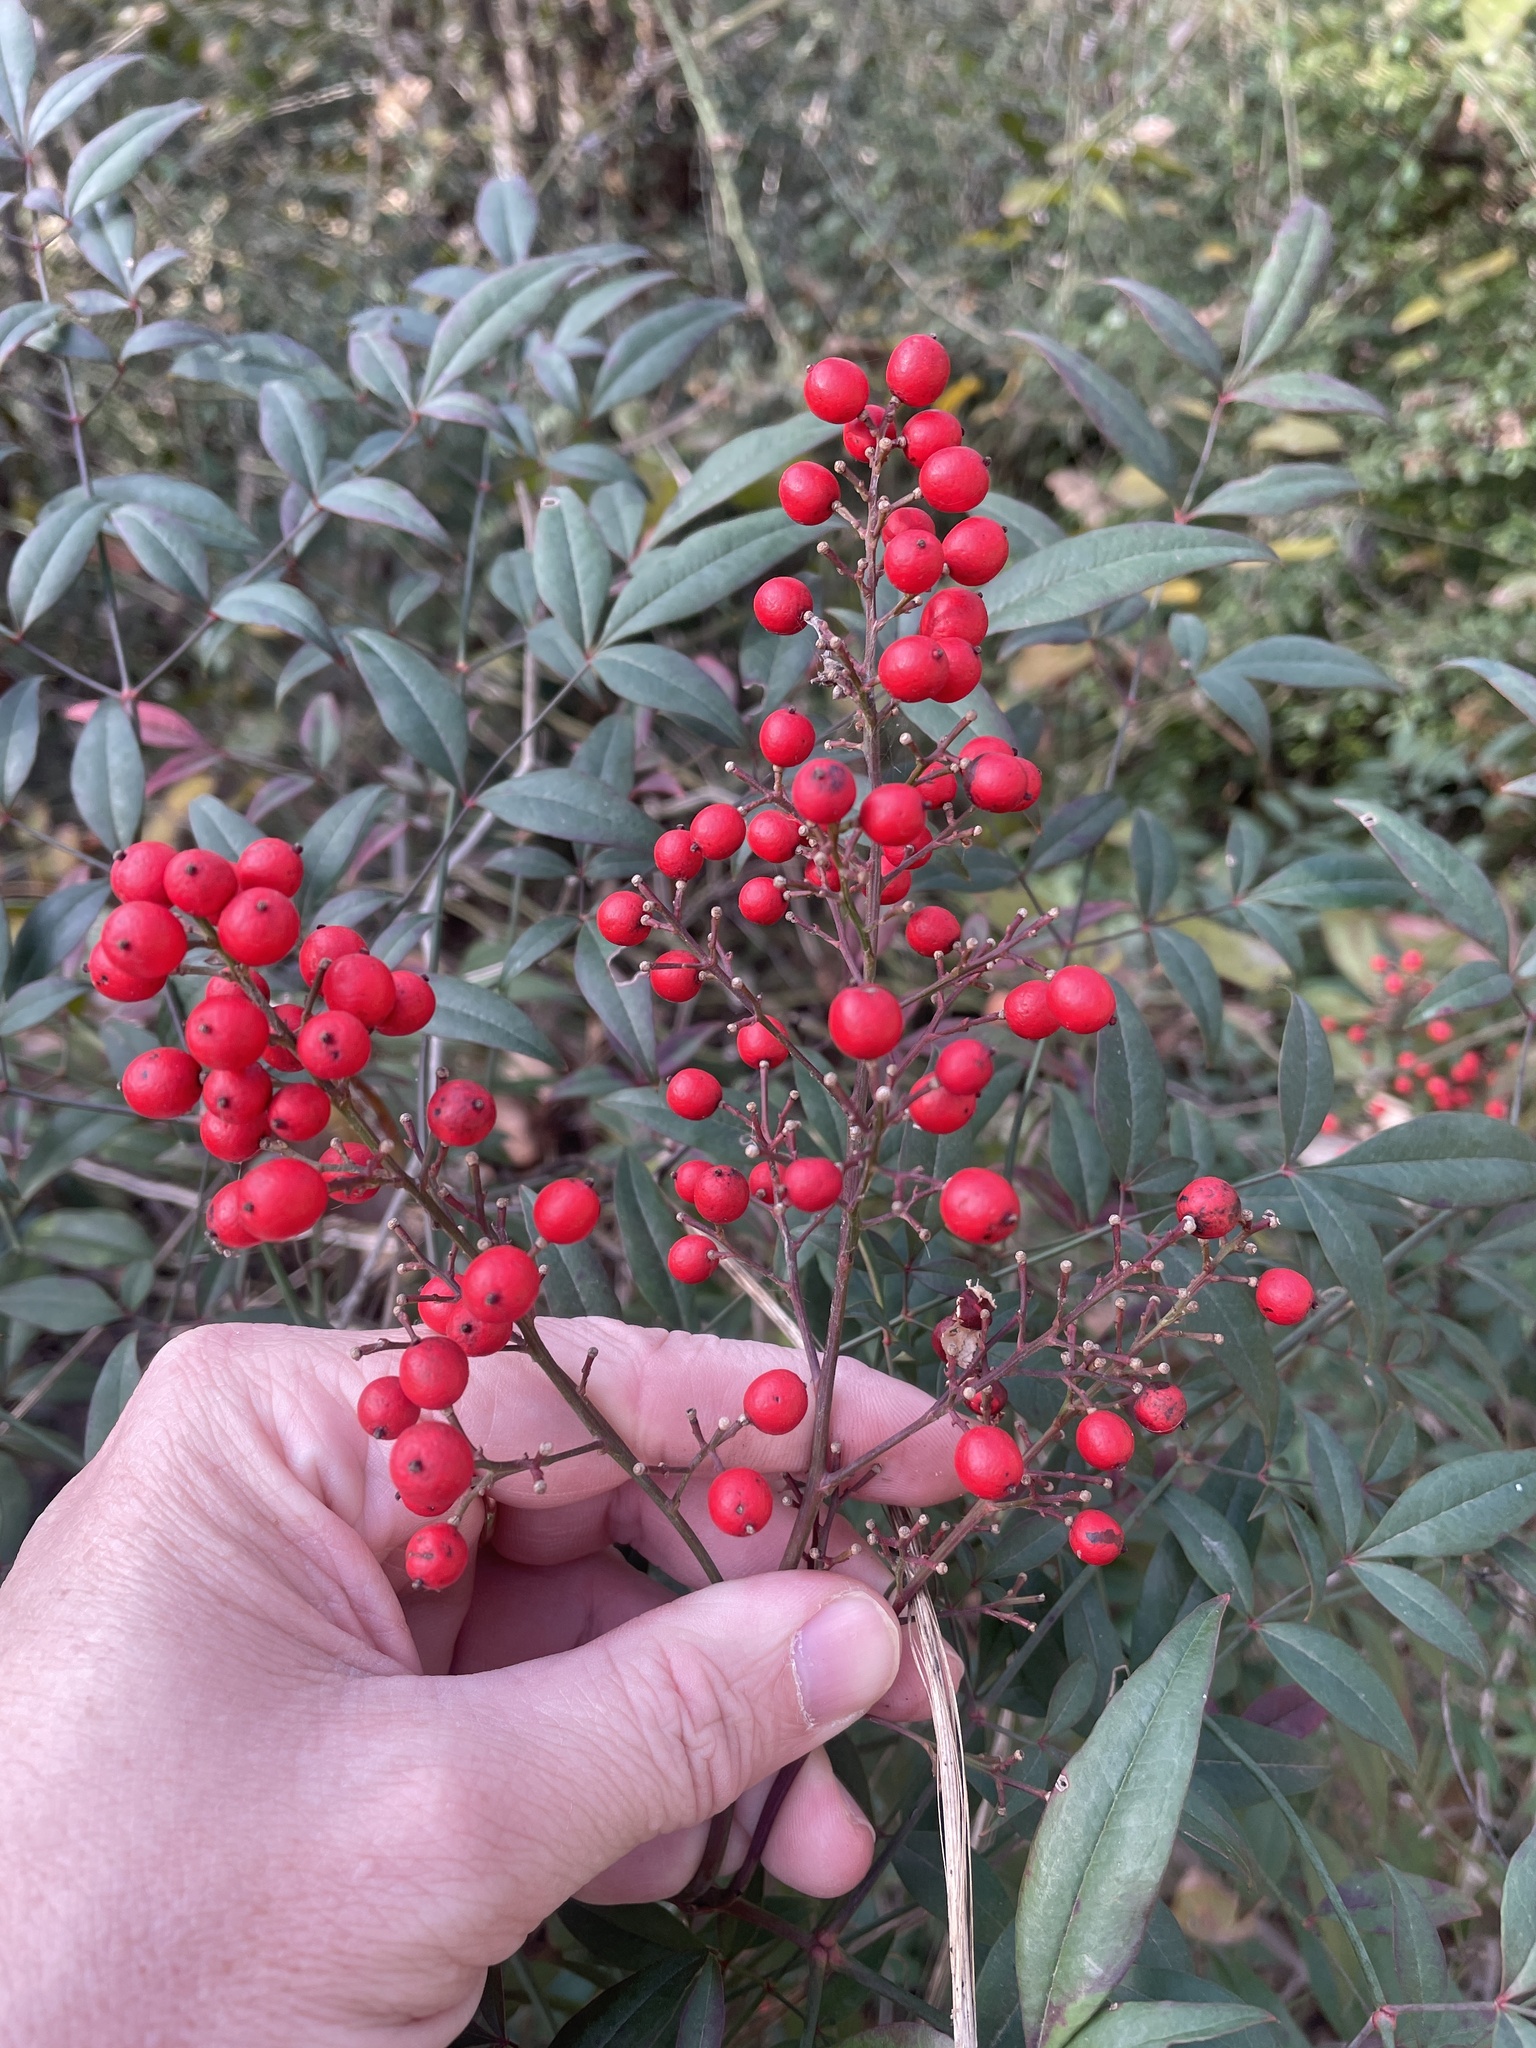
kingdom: Plantae
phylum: Tracheophyta
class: Magnoliopsida
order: Ranunculales
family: Berberidaceae
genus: Nandina
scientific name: Nandina domestica
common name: Sacred bamboo
